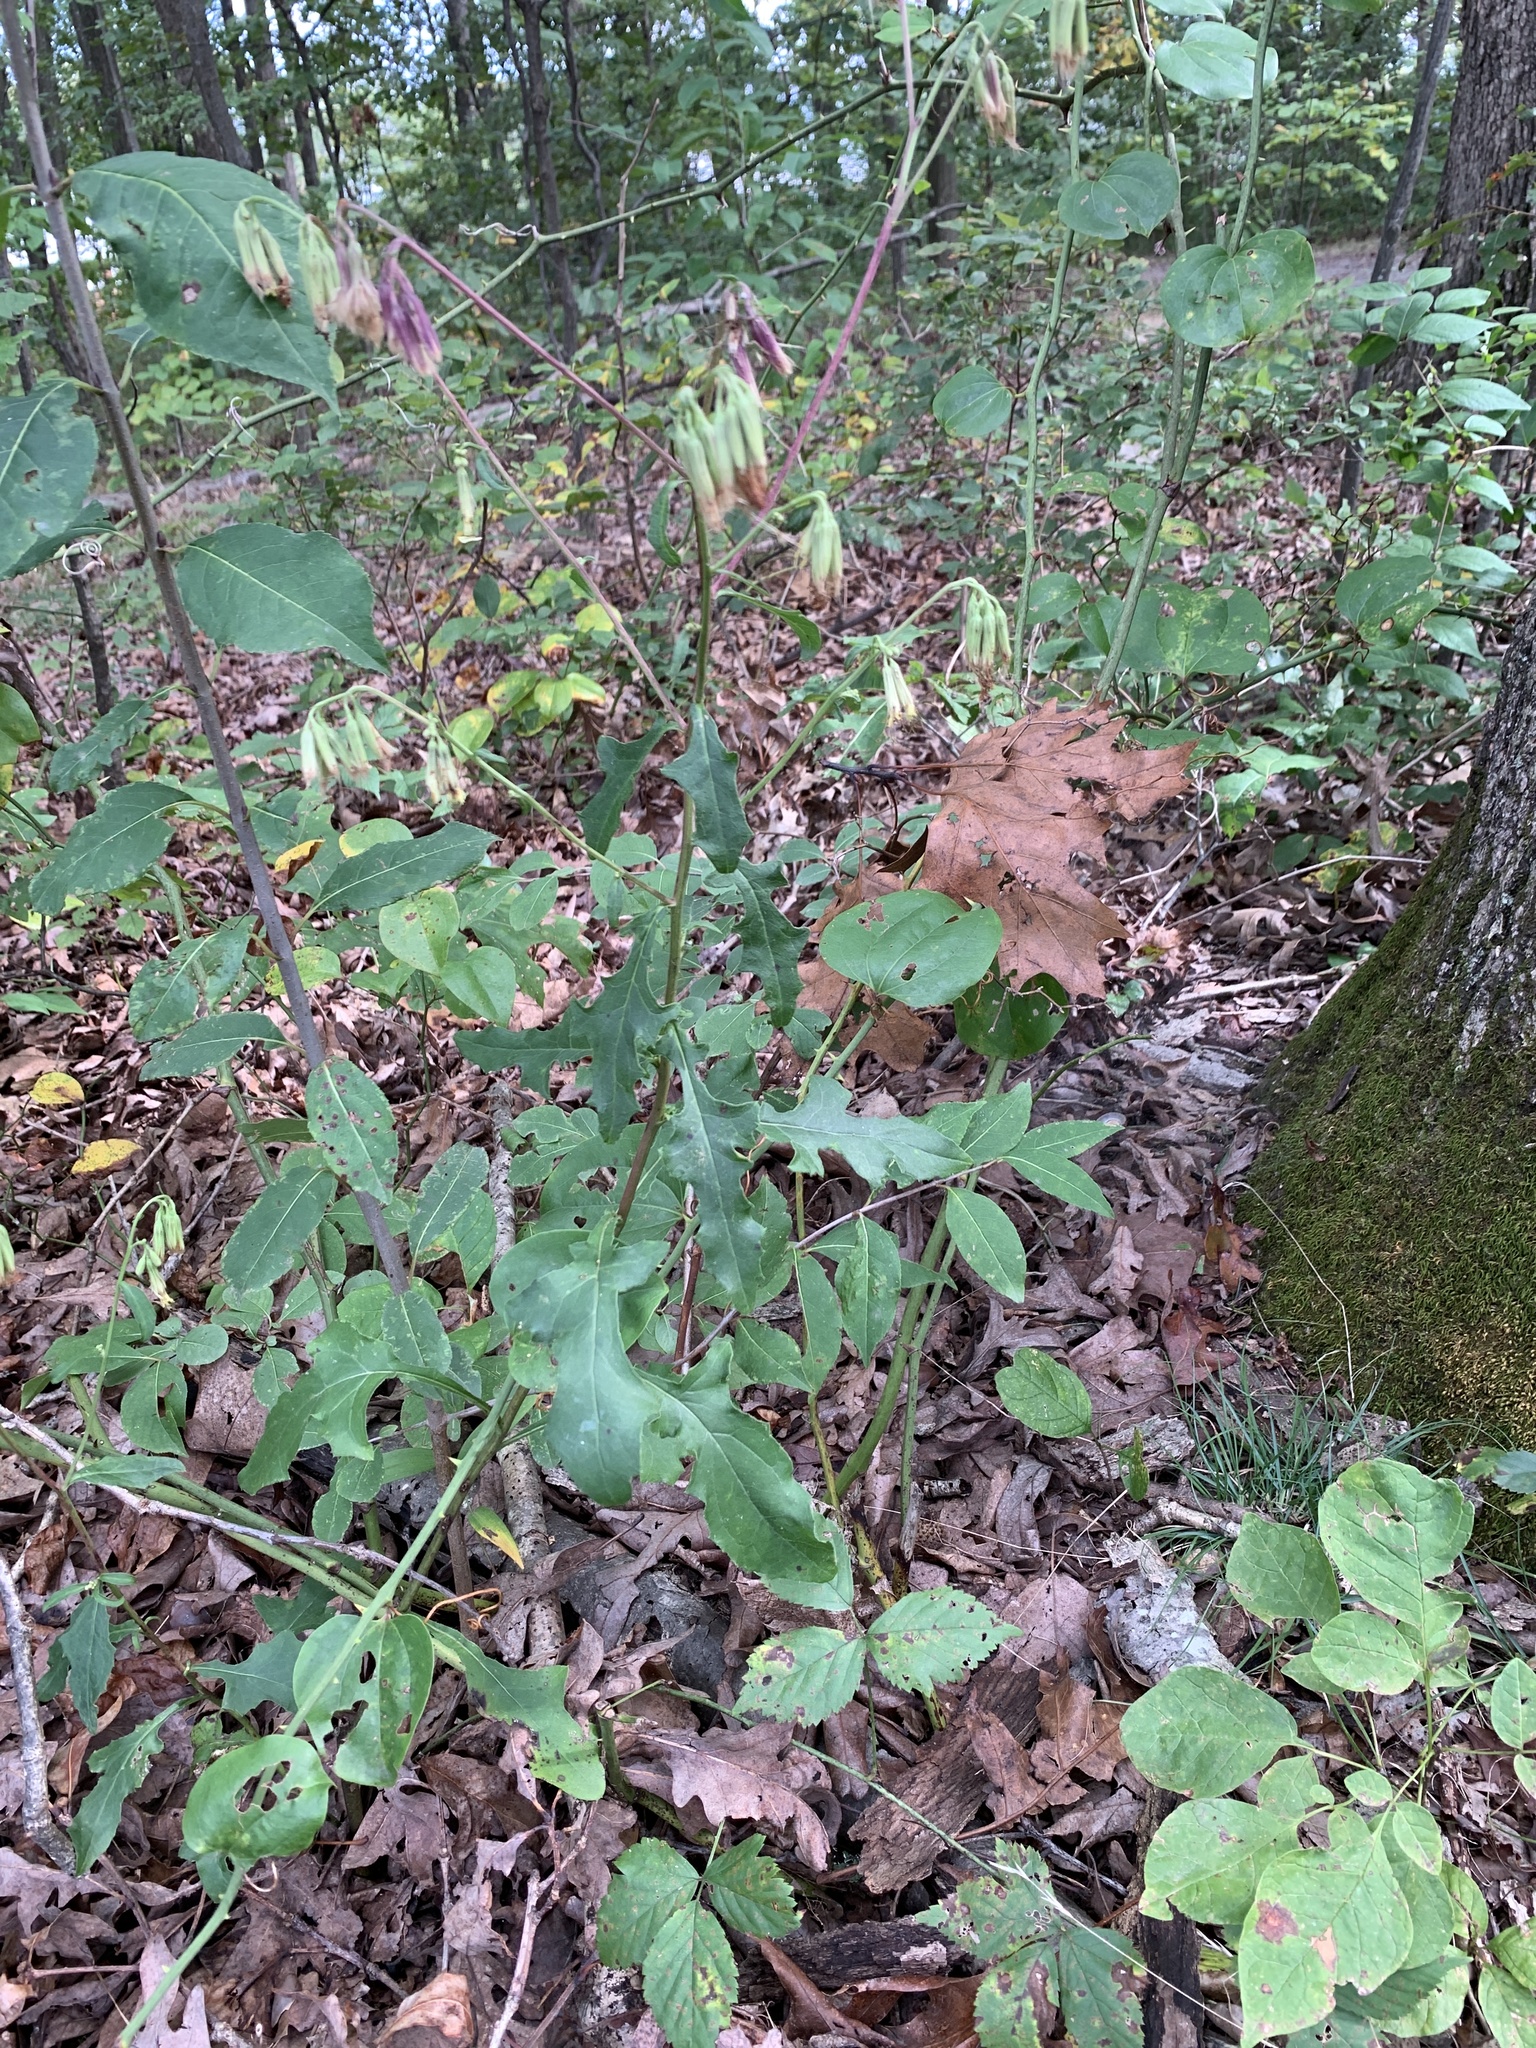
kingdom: Plantae
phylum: Tracheophyta
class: Magnoliopsida
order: Asterales
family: Asteraceae
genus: Nabalus
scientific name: Nabalus serpentarius
